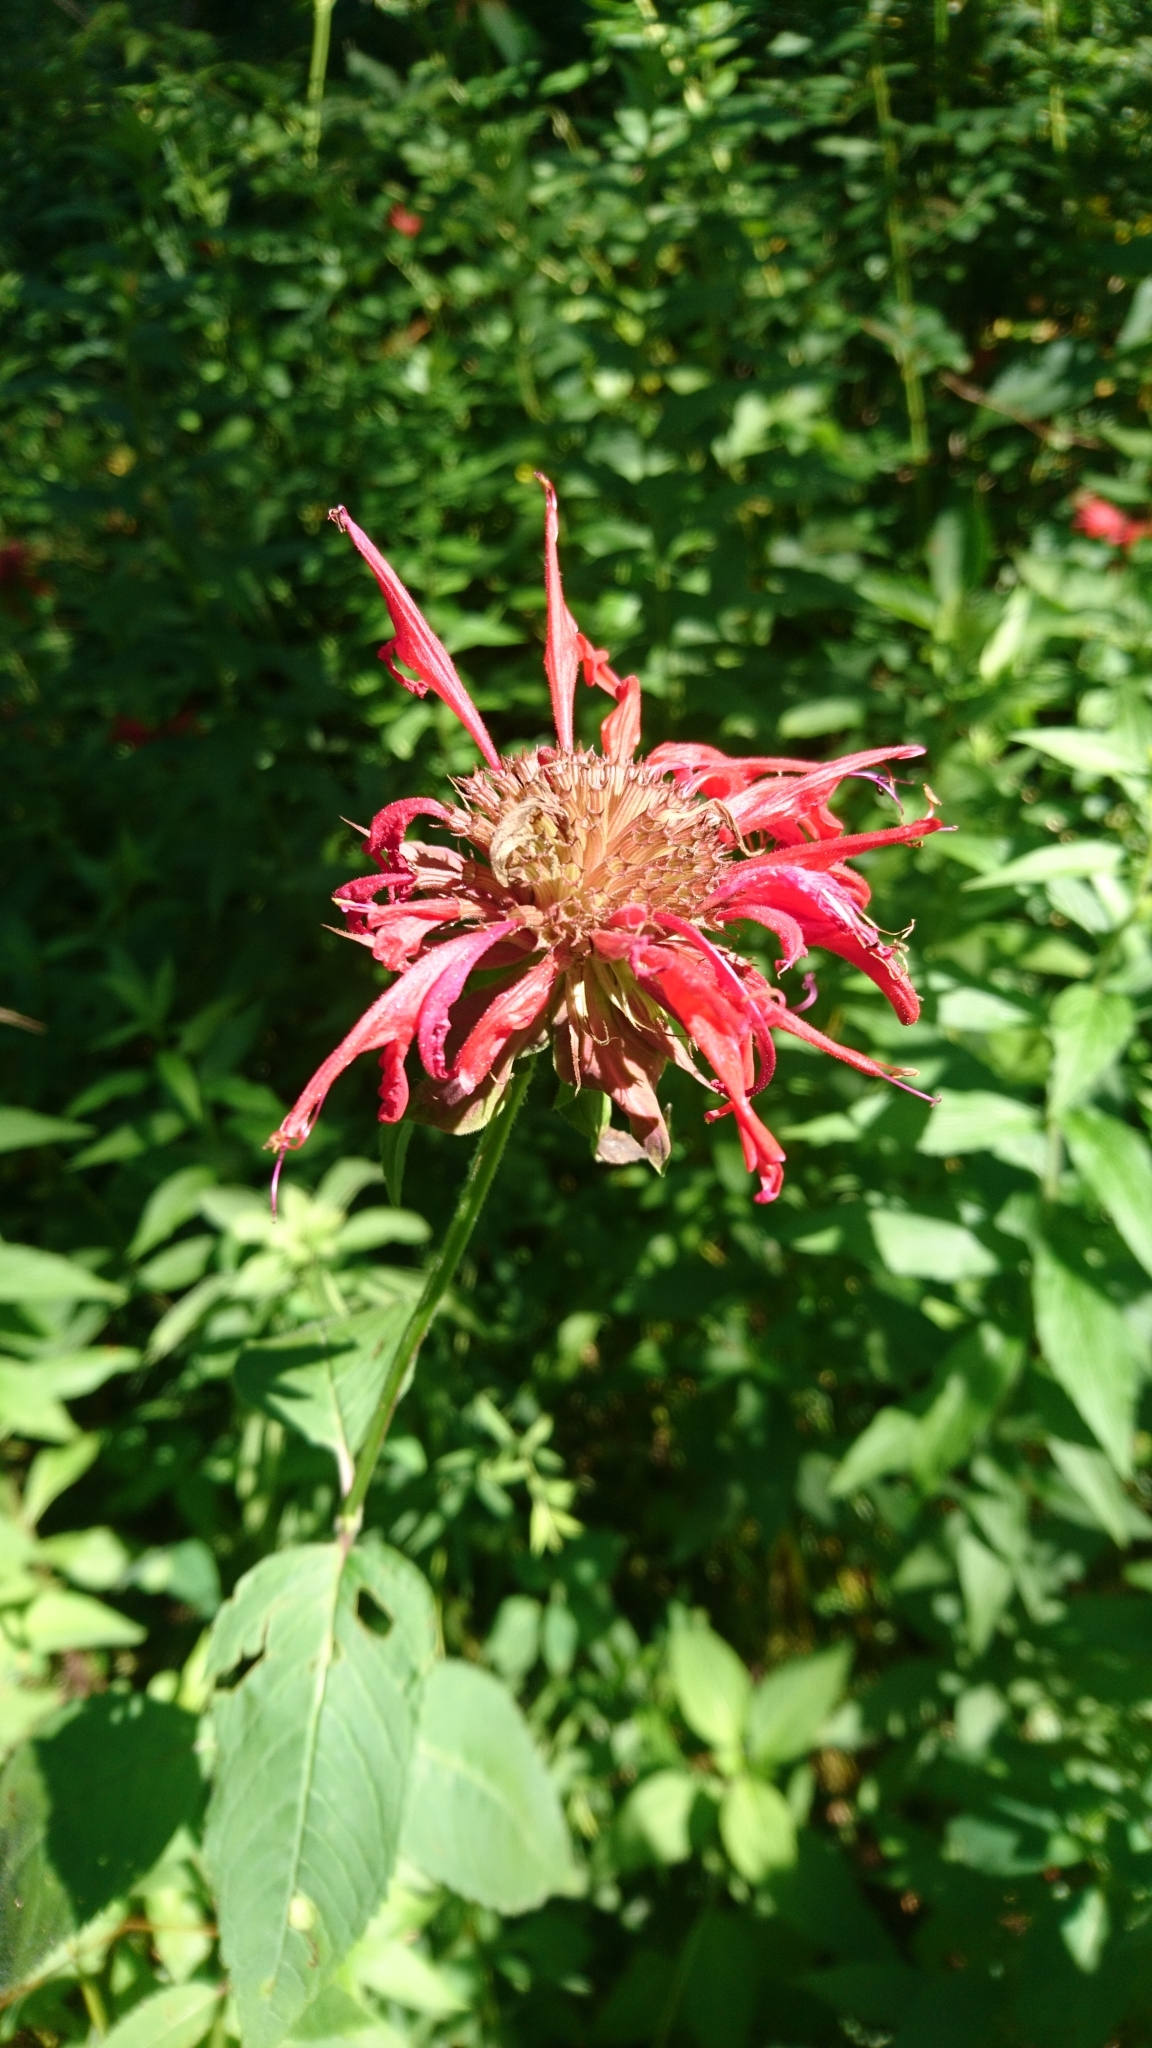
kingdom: Plantae
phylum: Tracheophyta
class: Magnoliopsida
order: Lamiales
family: Lamiaceae
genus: Monarda
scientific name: Monarda didyma
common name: Beebalm
